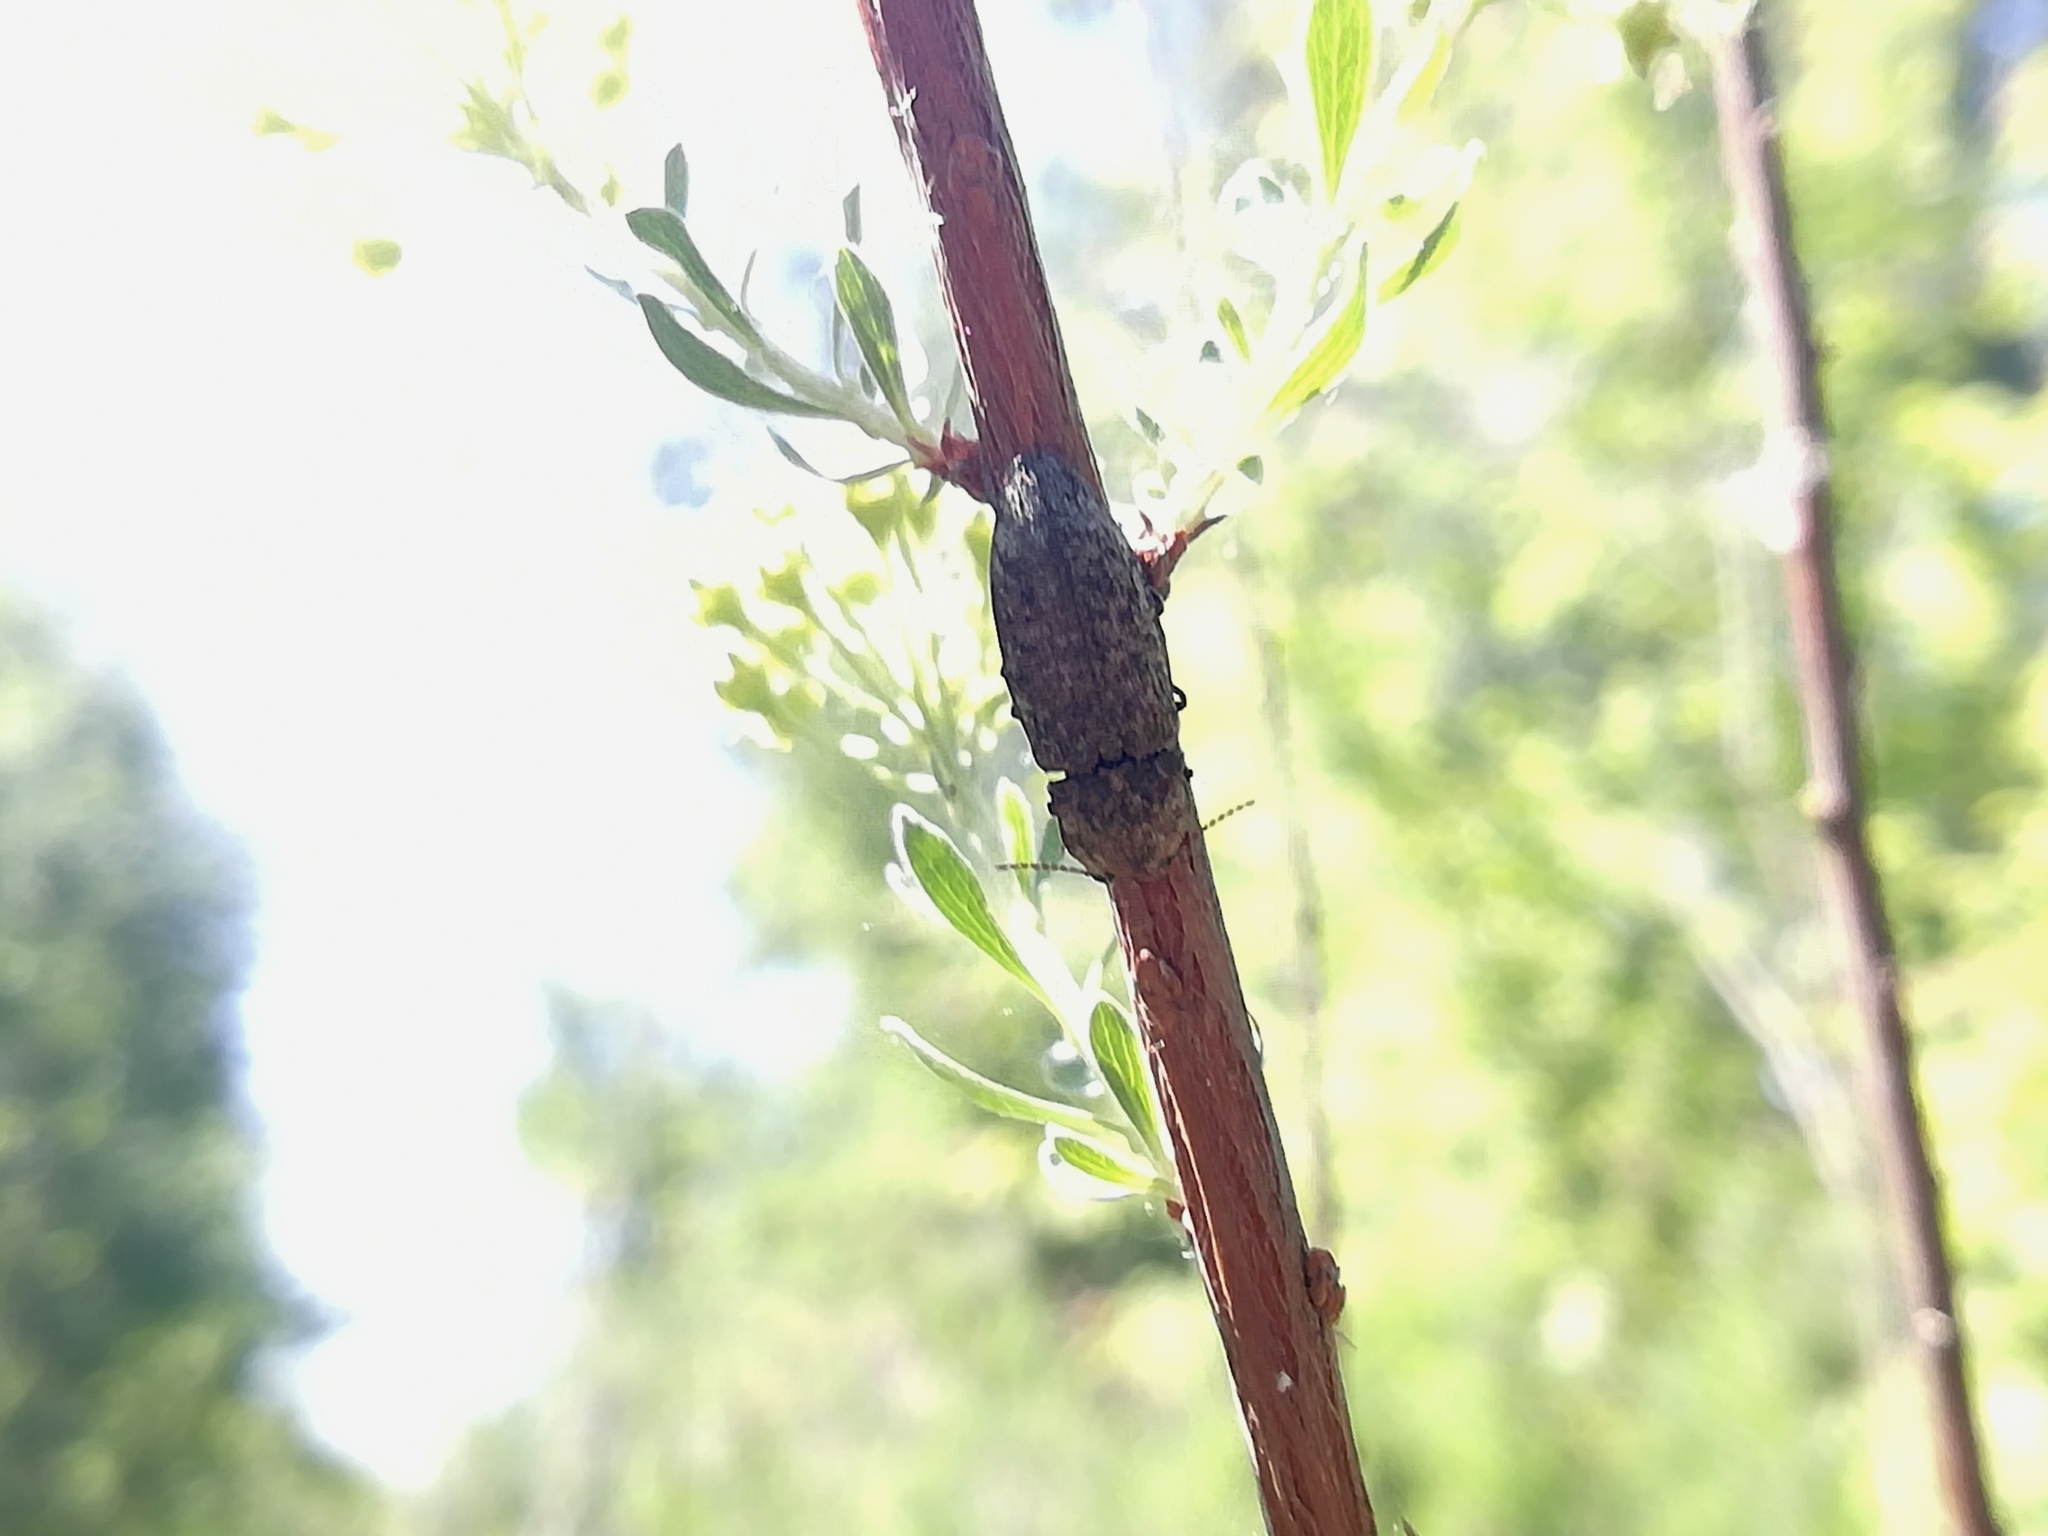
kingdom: Animalia
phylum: Arthropoda
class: Insecta
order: Coleoptera
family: Elateridae
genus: Agrypnus
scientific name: Agrypnus murinus
